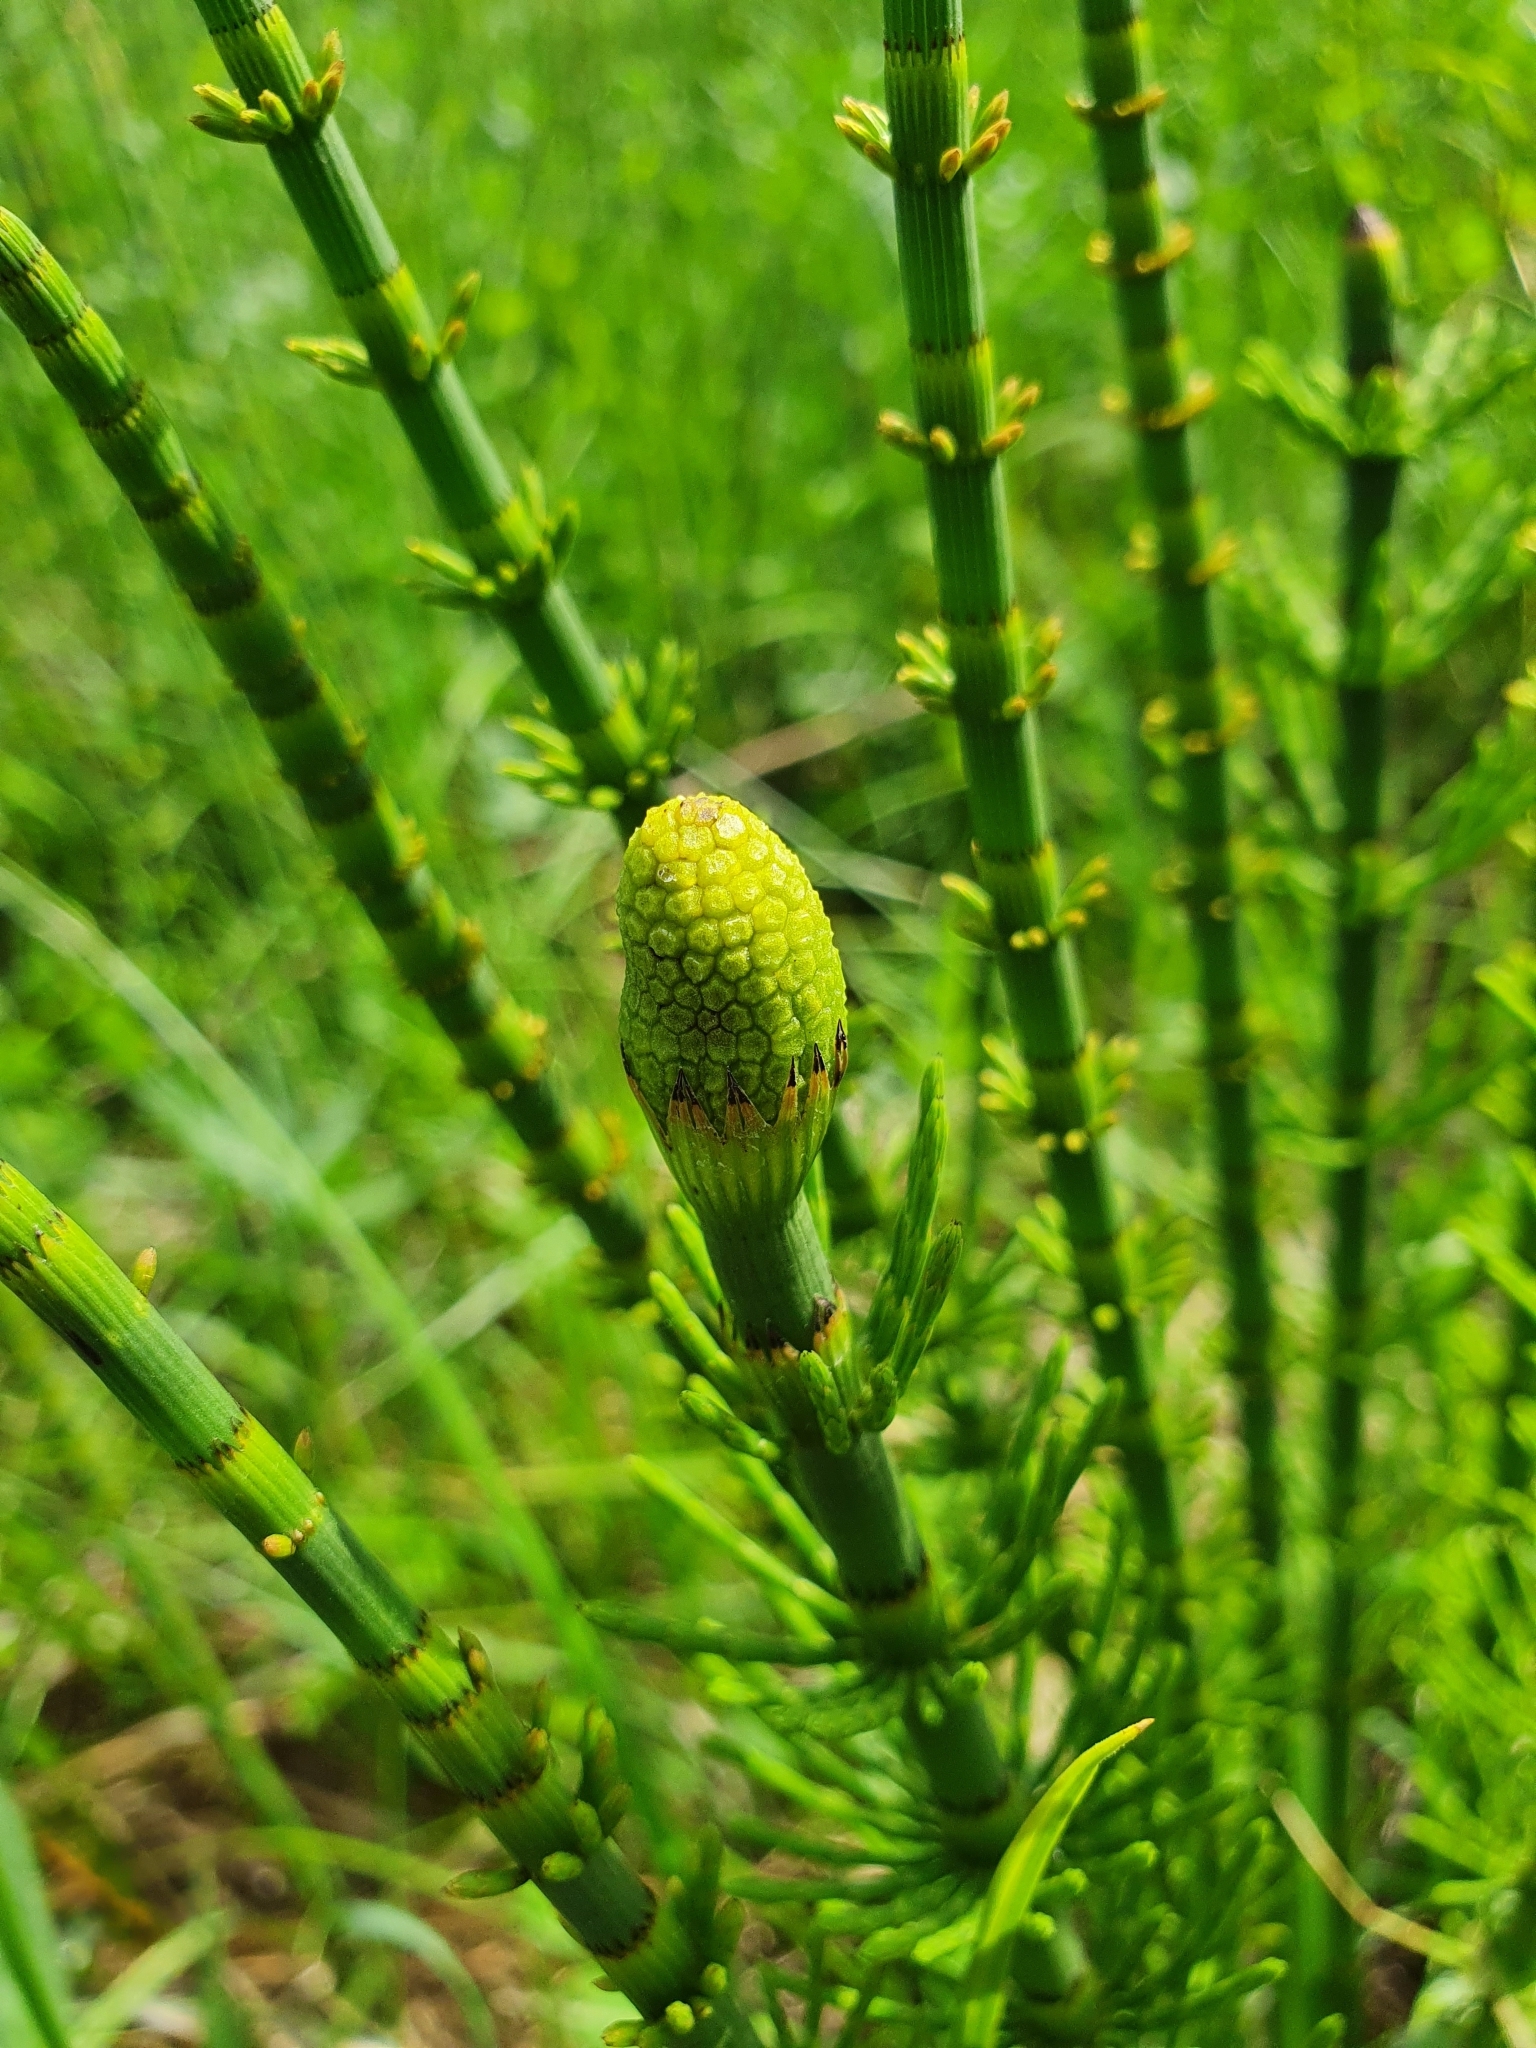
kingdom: Plantae
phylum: Tracheophyta
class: Polypodiopsida
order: Equisetales
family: Equisetaceae
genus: Equisetum
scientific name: Equisetum fluviatile
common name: Water horsetail
